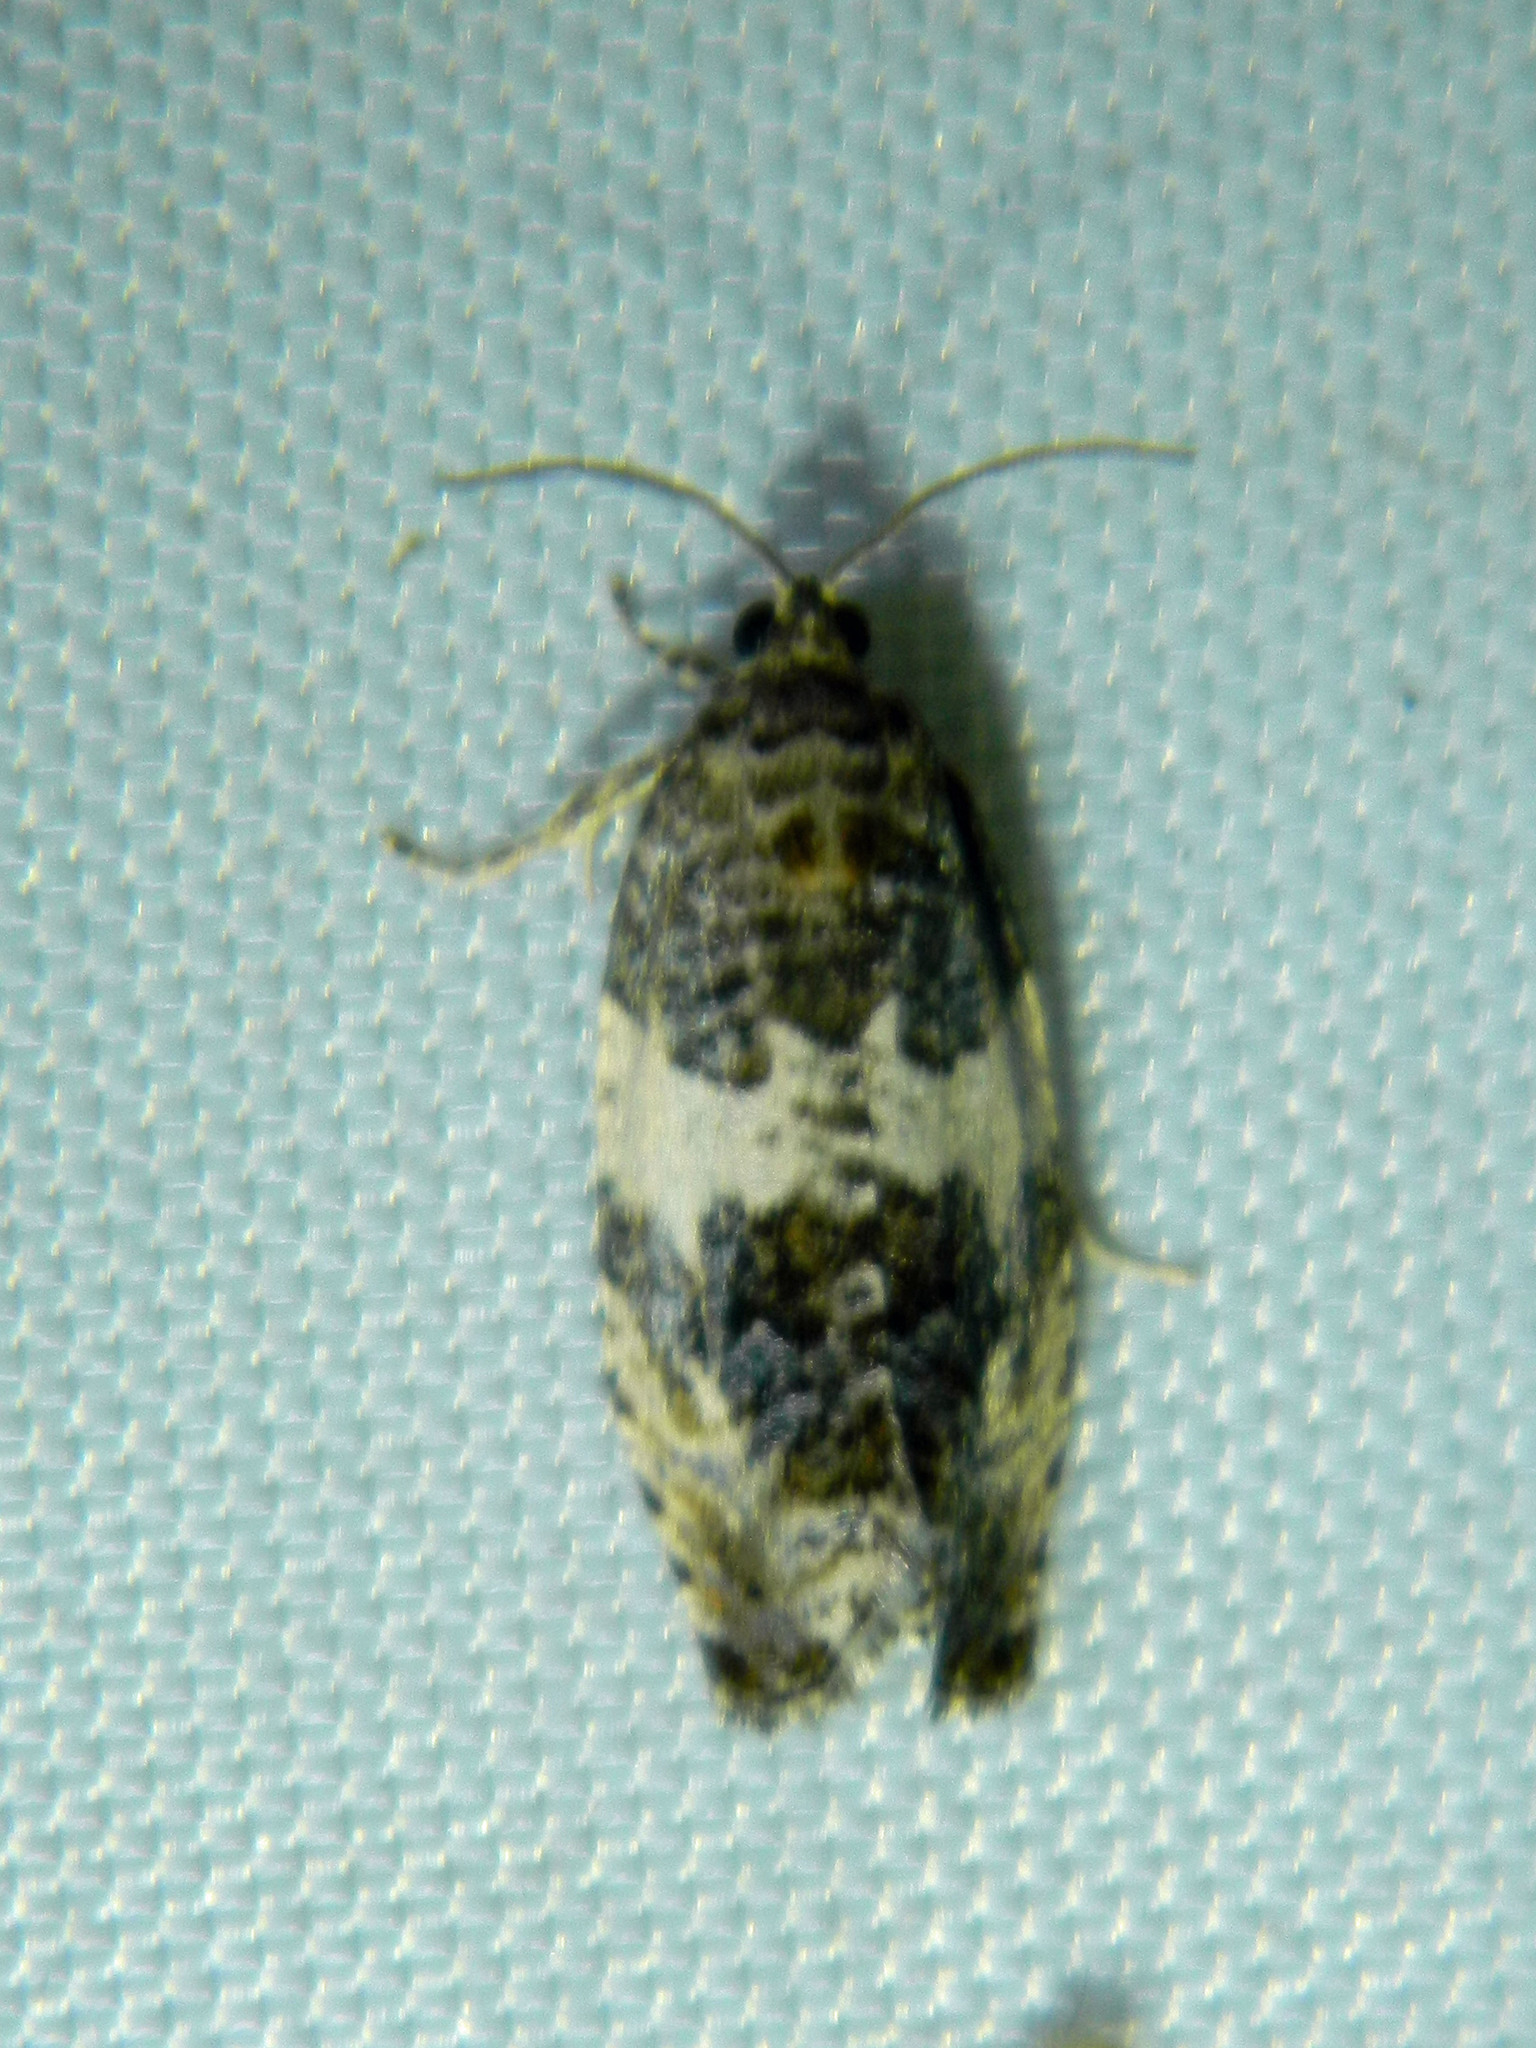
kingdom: Animalia
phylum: Arthropoda
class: Insecta
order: Lepidoptera
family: Tortricidae
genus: Pseudosciaphila
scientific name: Pseudosciaphila duplex
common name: Poplar leafroller moth
